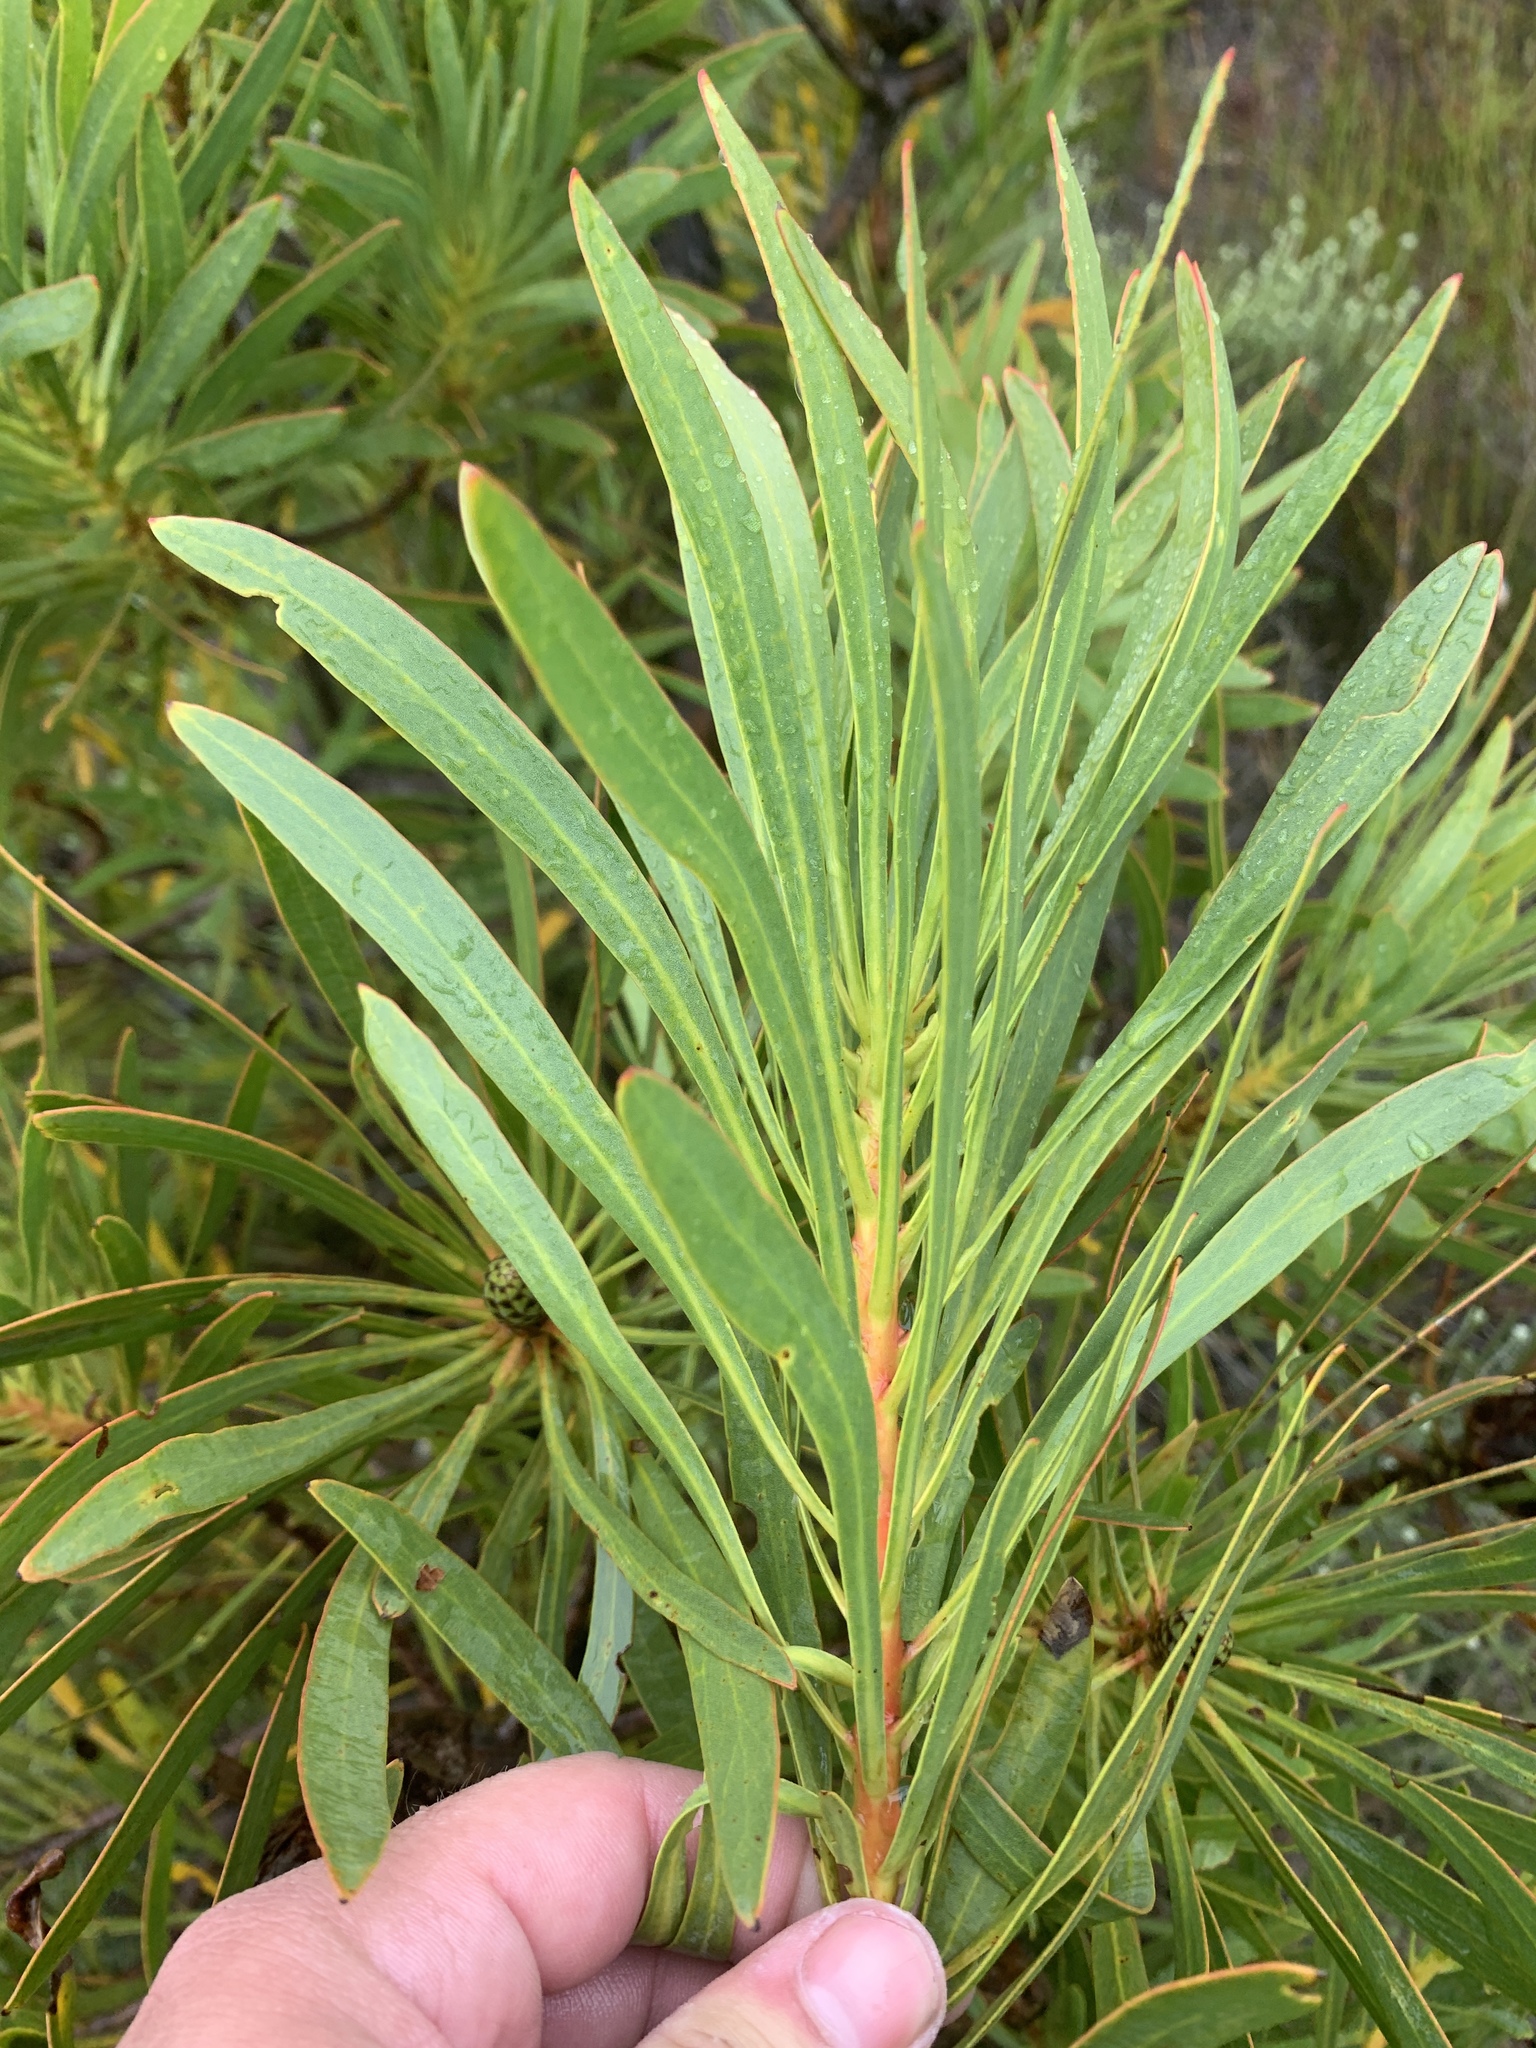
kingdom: Plantae
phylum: Tracheophyta
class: Magnoliopsida
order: Proteales
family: Proteaceae
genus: Protea
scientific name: Protea repens
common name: Sugarbush
